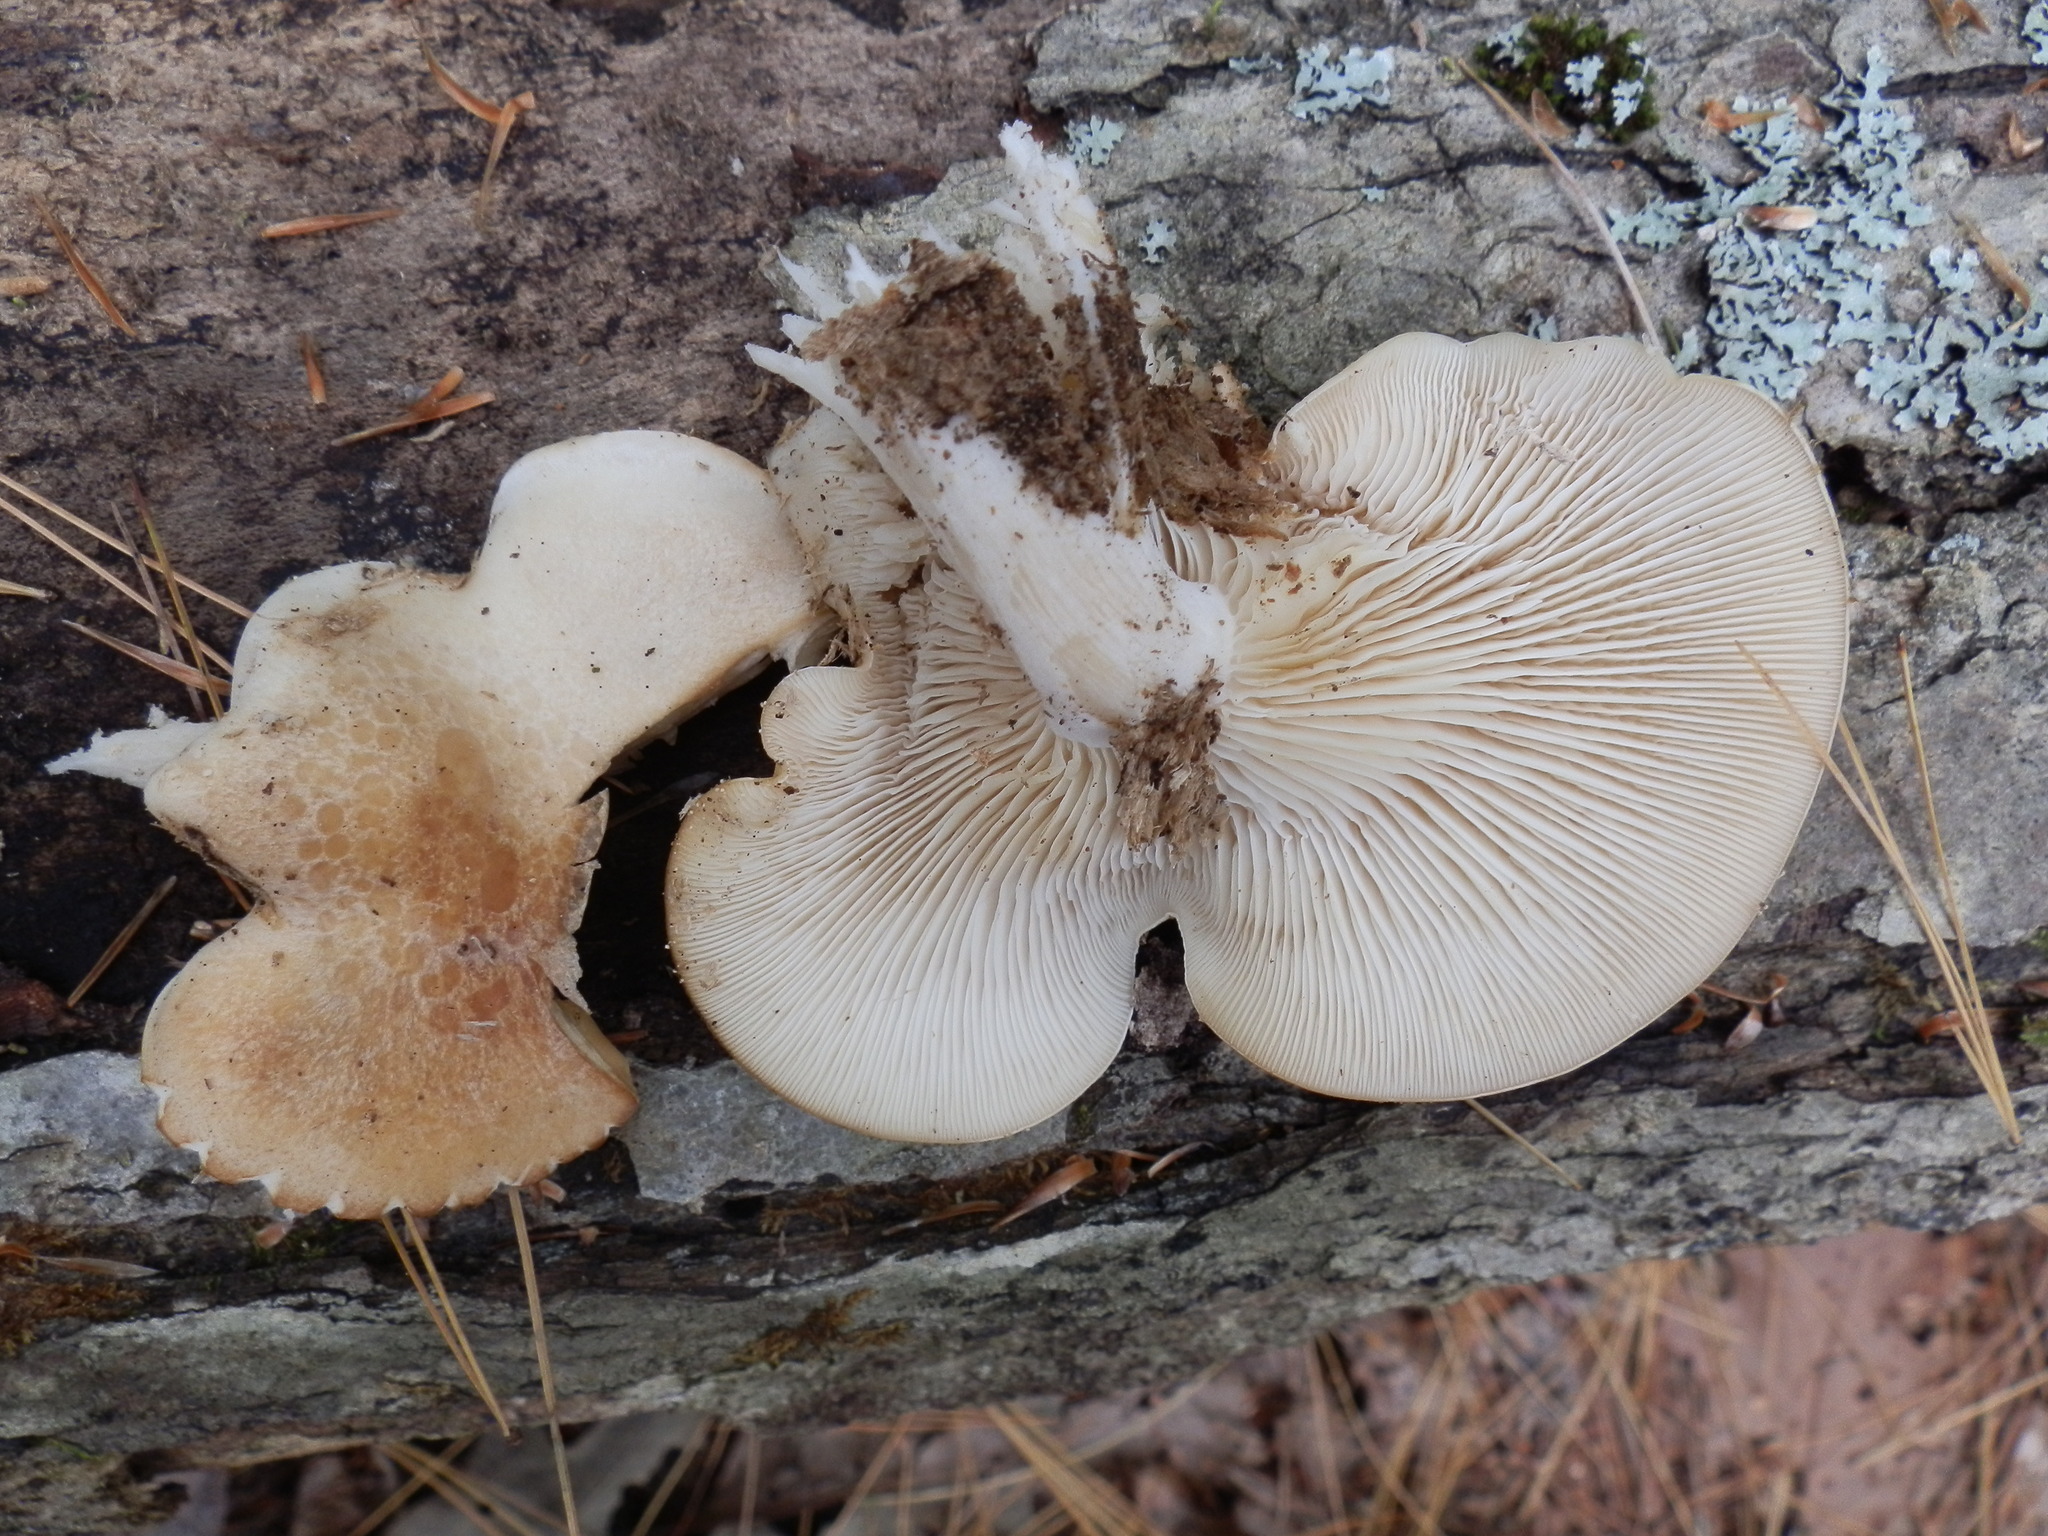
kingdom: Fungi
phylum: Basidiomycota
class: Agaricomycetes
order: Agaricales
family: Lyophyllaceae
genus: Hypsizygus
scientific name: Hypsizygus marmoreus
